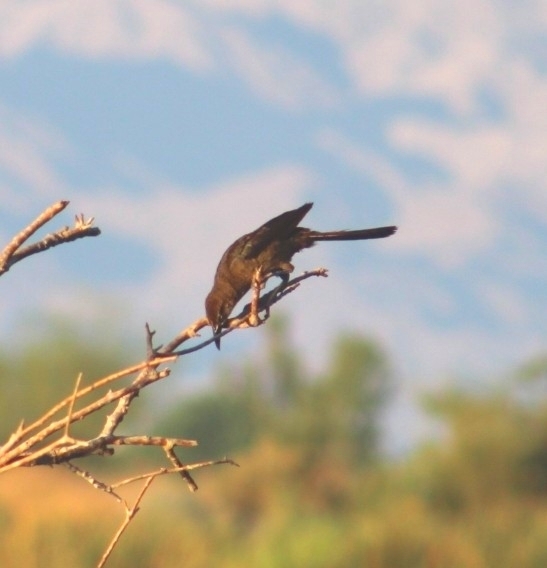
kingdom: Animalia
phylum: Chordata
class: Aves
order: Passeriformes
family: Icteridae
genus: Quiscalus
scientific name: Quiscalus mexicanus
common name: Great-tailed grackle
